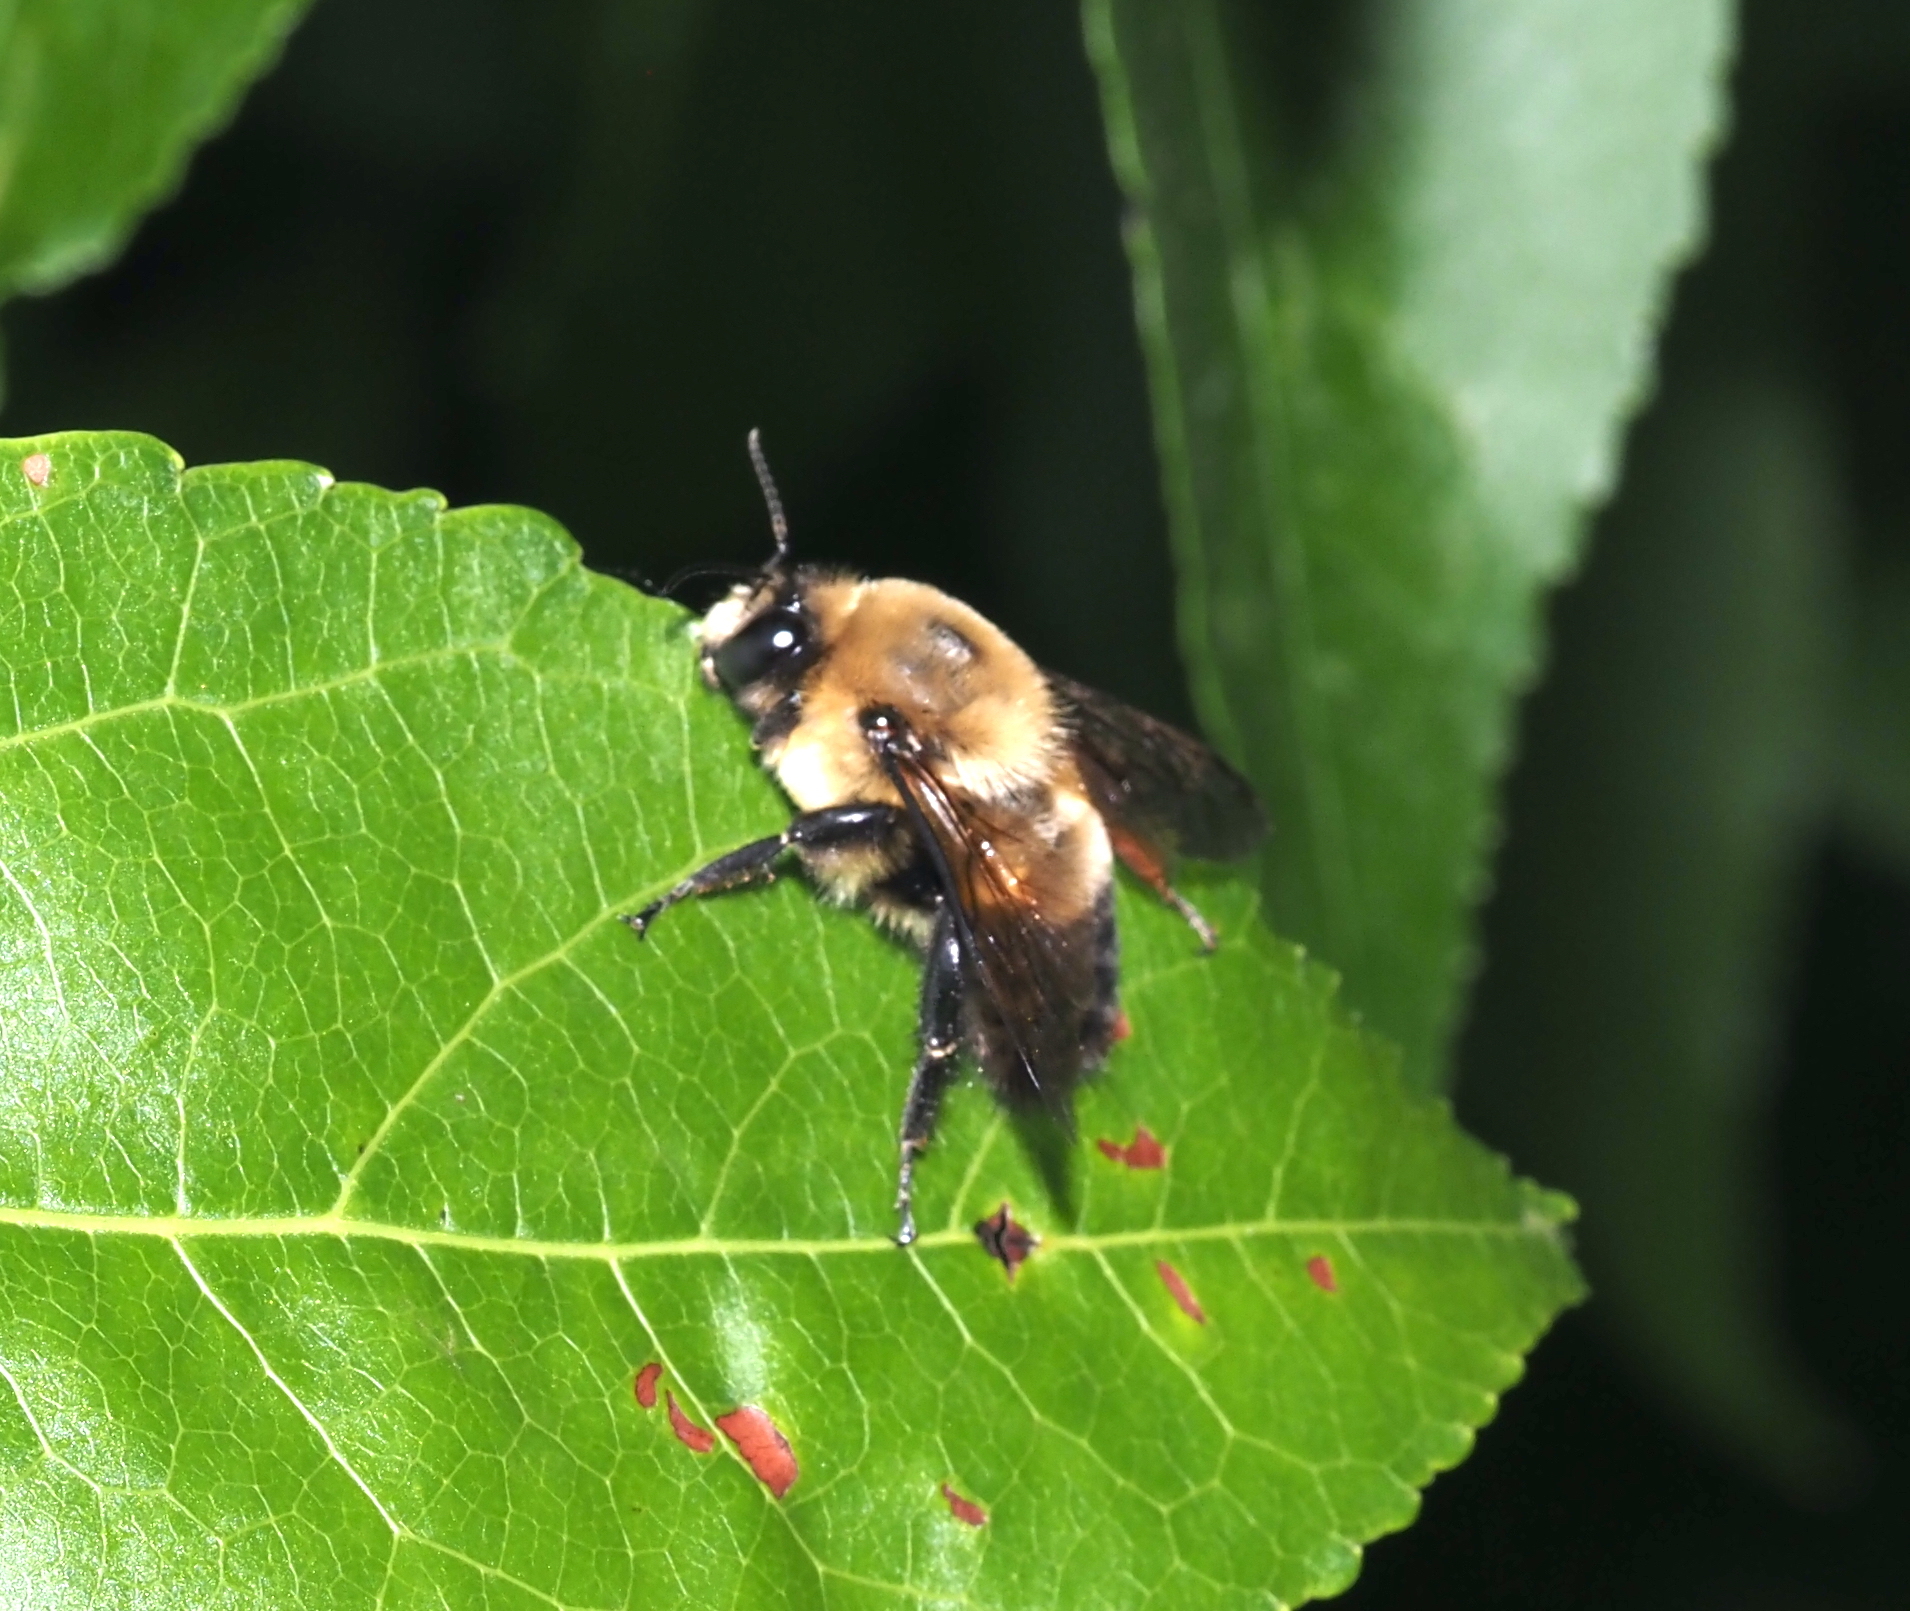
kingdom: Animalia
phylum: Arthropoda
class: Insecta
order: Hymenoptera
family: Apidae
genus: Bombus
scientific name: Bombus griseocollis
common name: Brown-belted bumble bee
